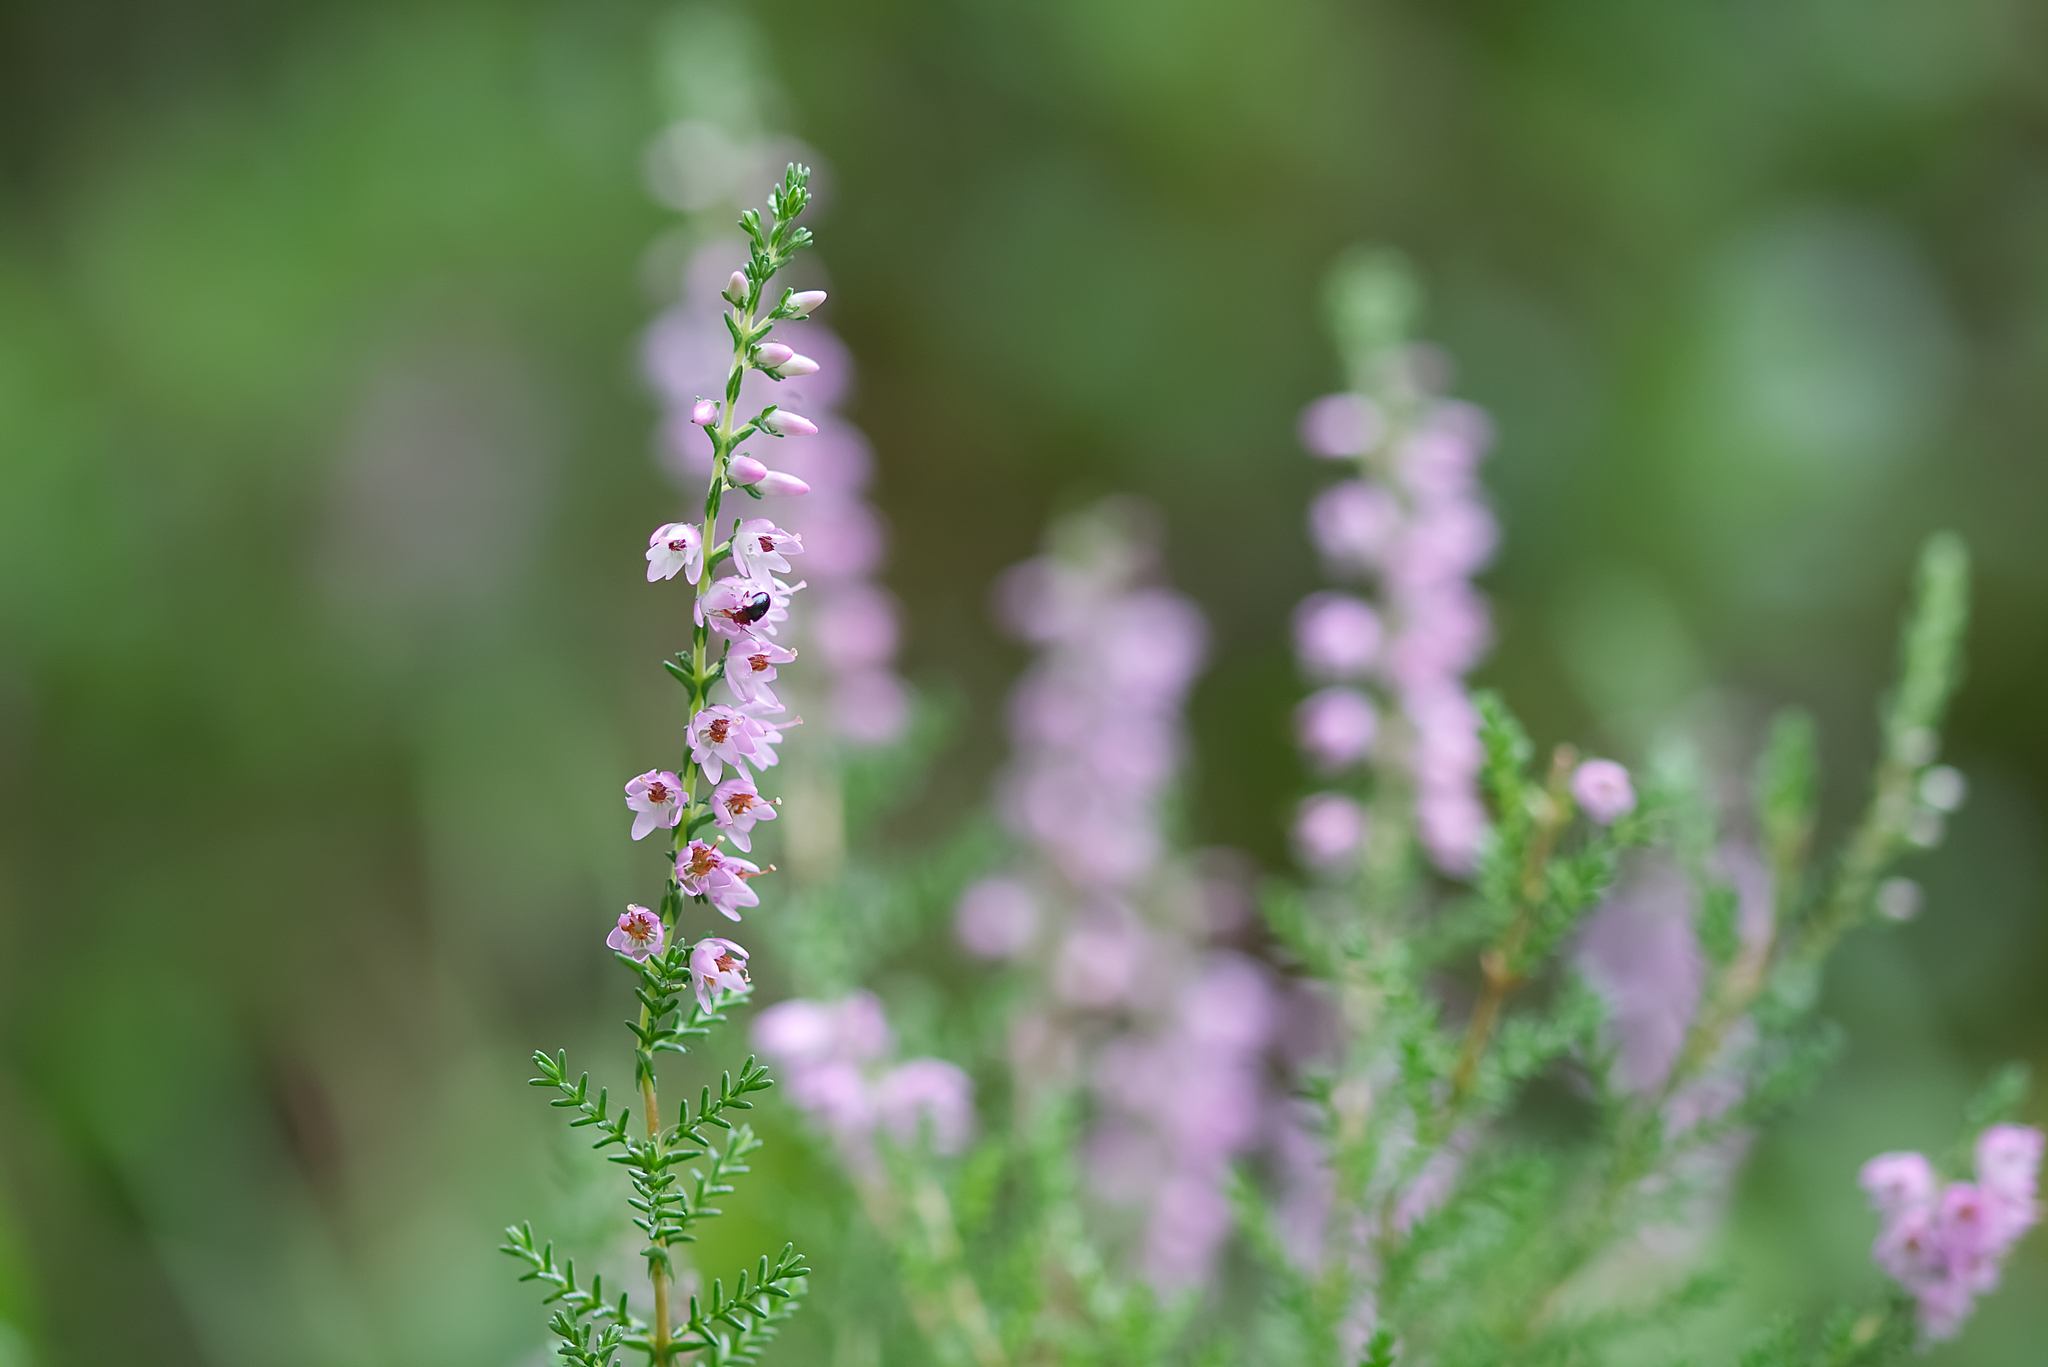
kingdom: Plantae
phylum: Tracheophyta
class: Magnoliopsida
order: Ericales
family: Ericaceae
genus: Calluna
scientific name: Calluna vulgaris
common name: Heather
